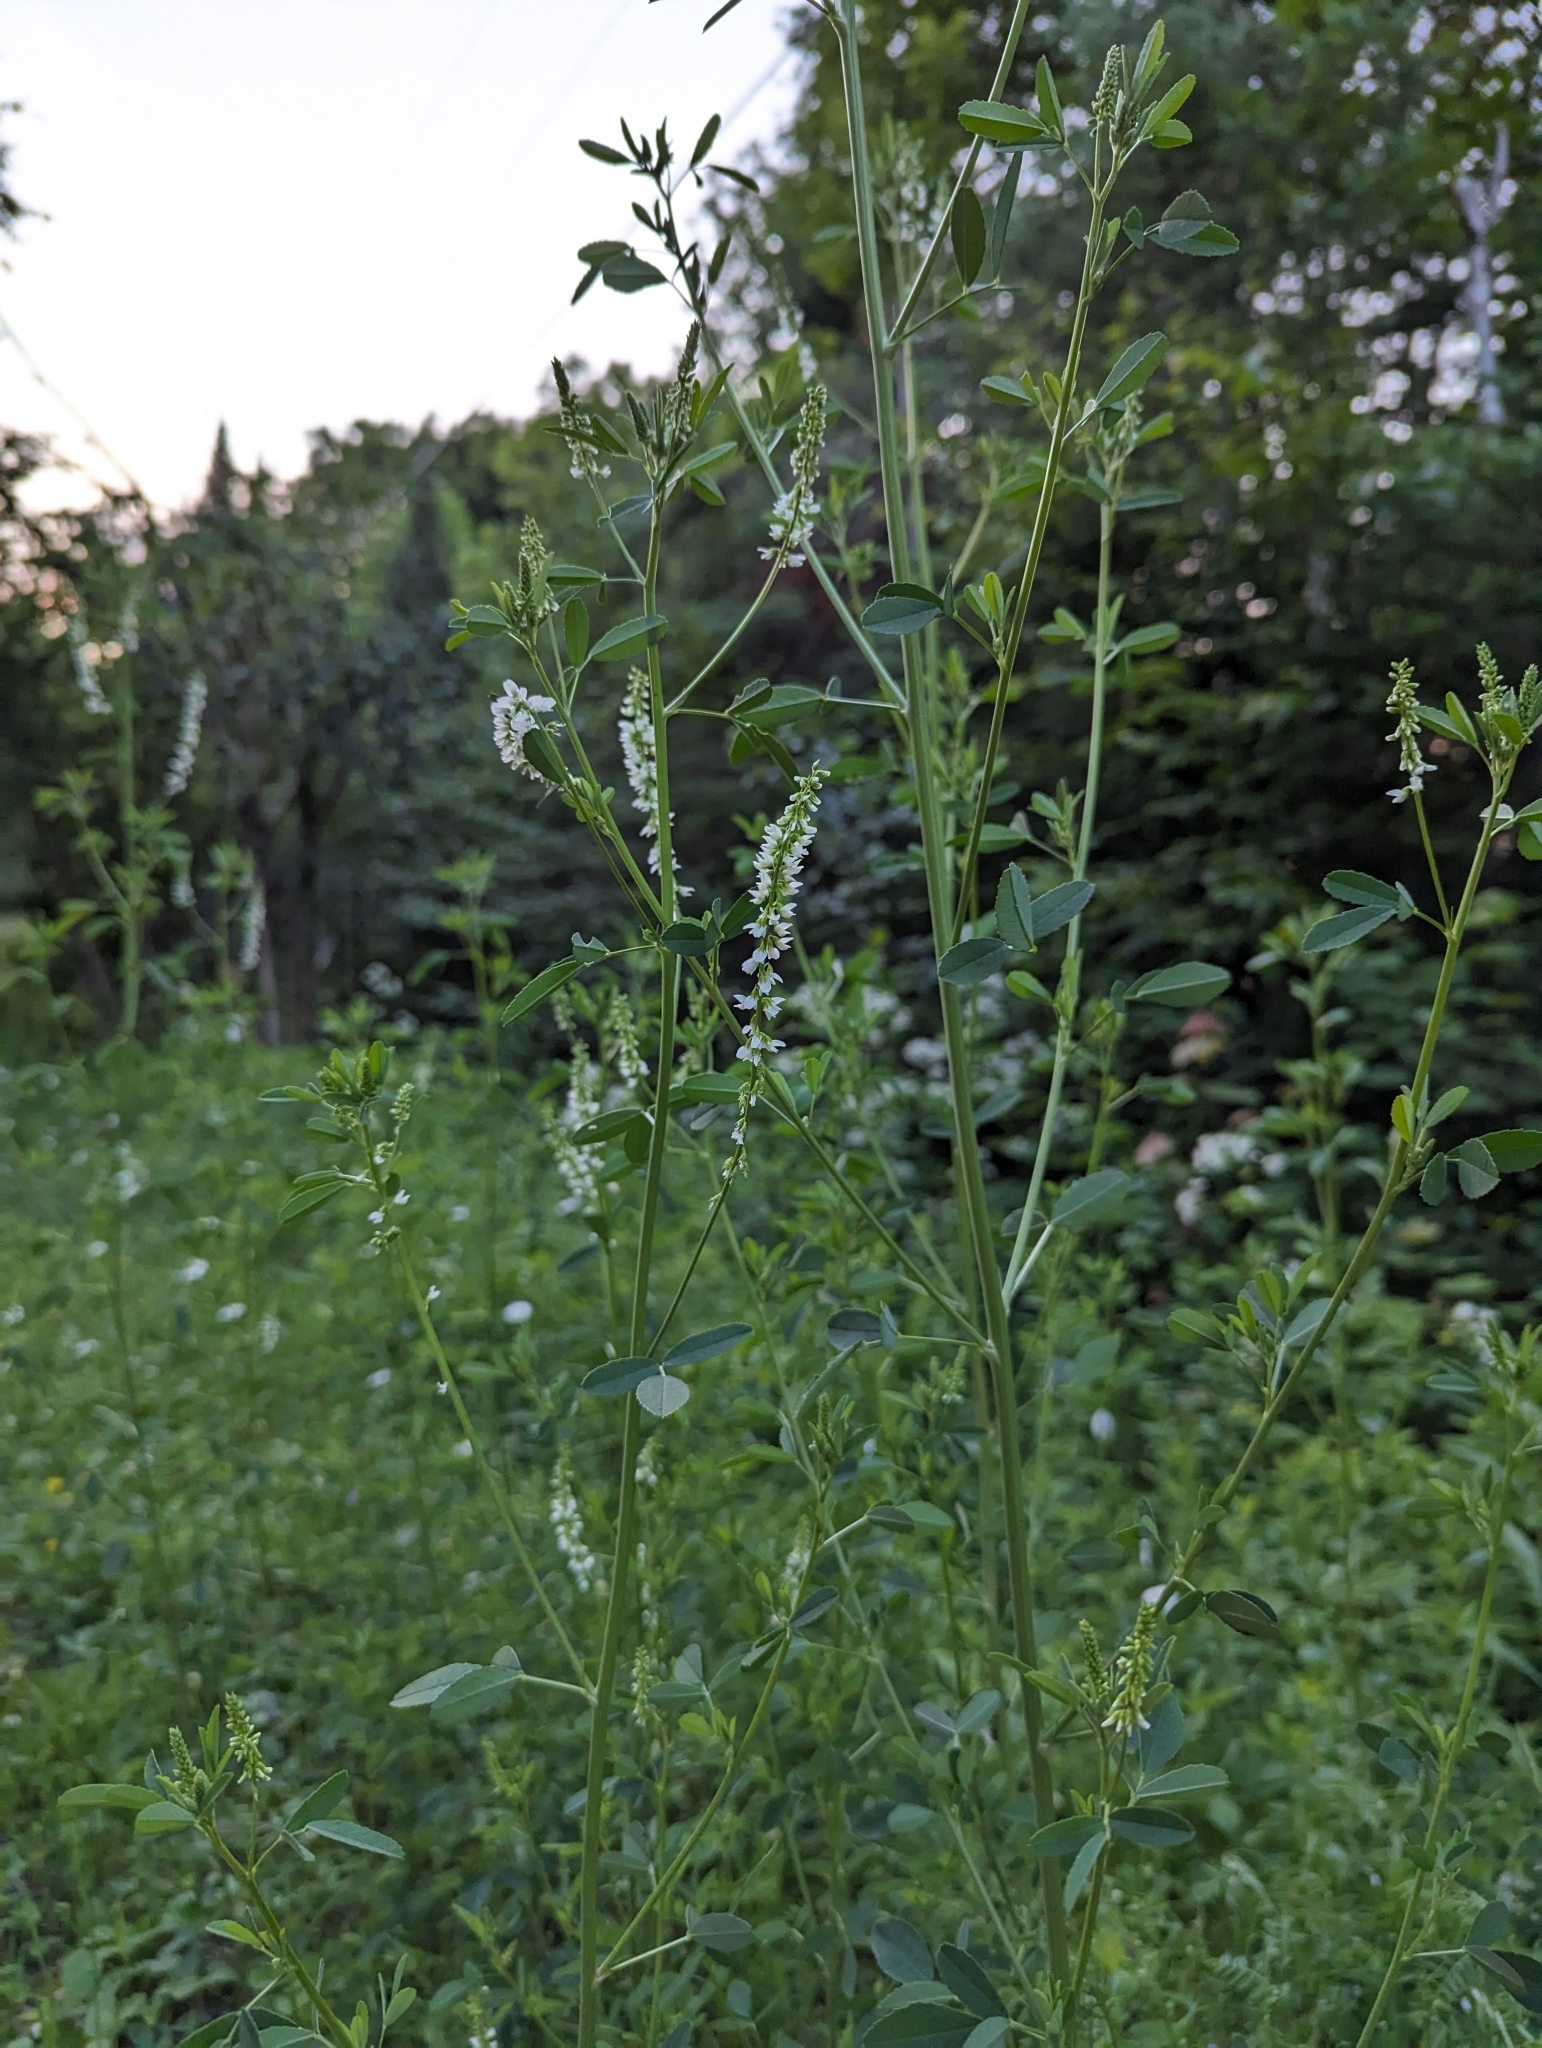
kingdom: Plantae
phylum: Tracheophyta
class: Magnoliopsida
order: Fabales
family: Fabaceae
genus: Melilotus
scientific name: Melilotus albus
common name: White melilot
